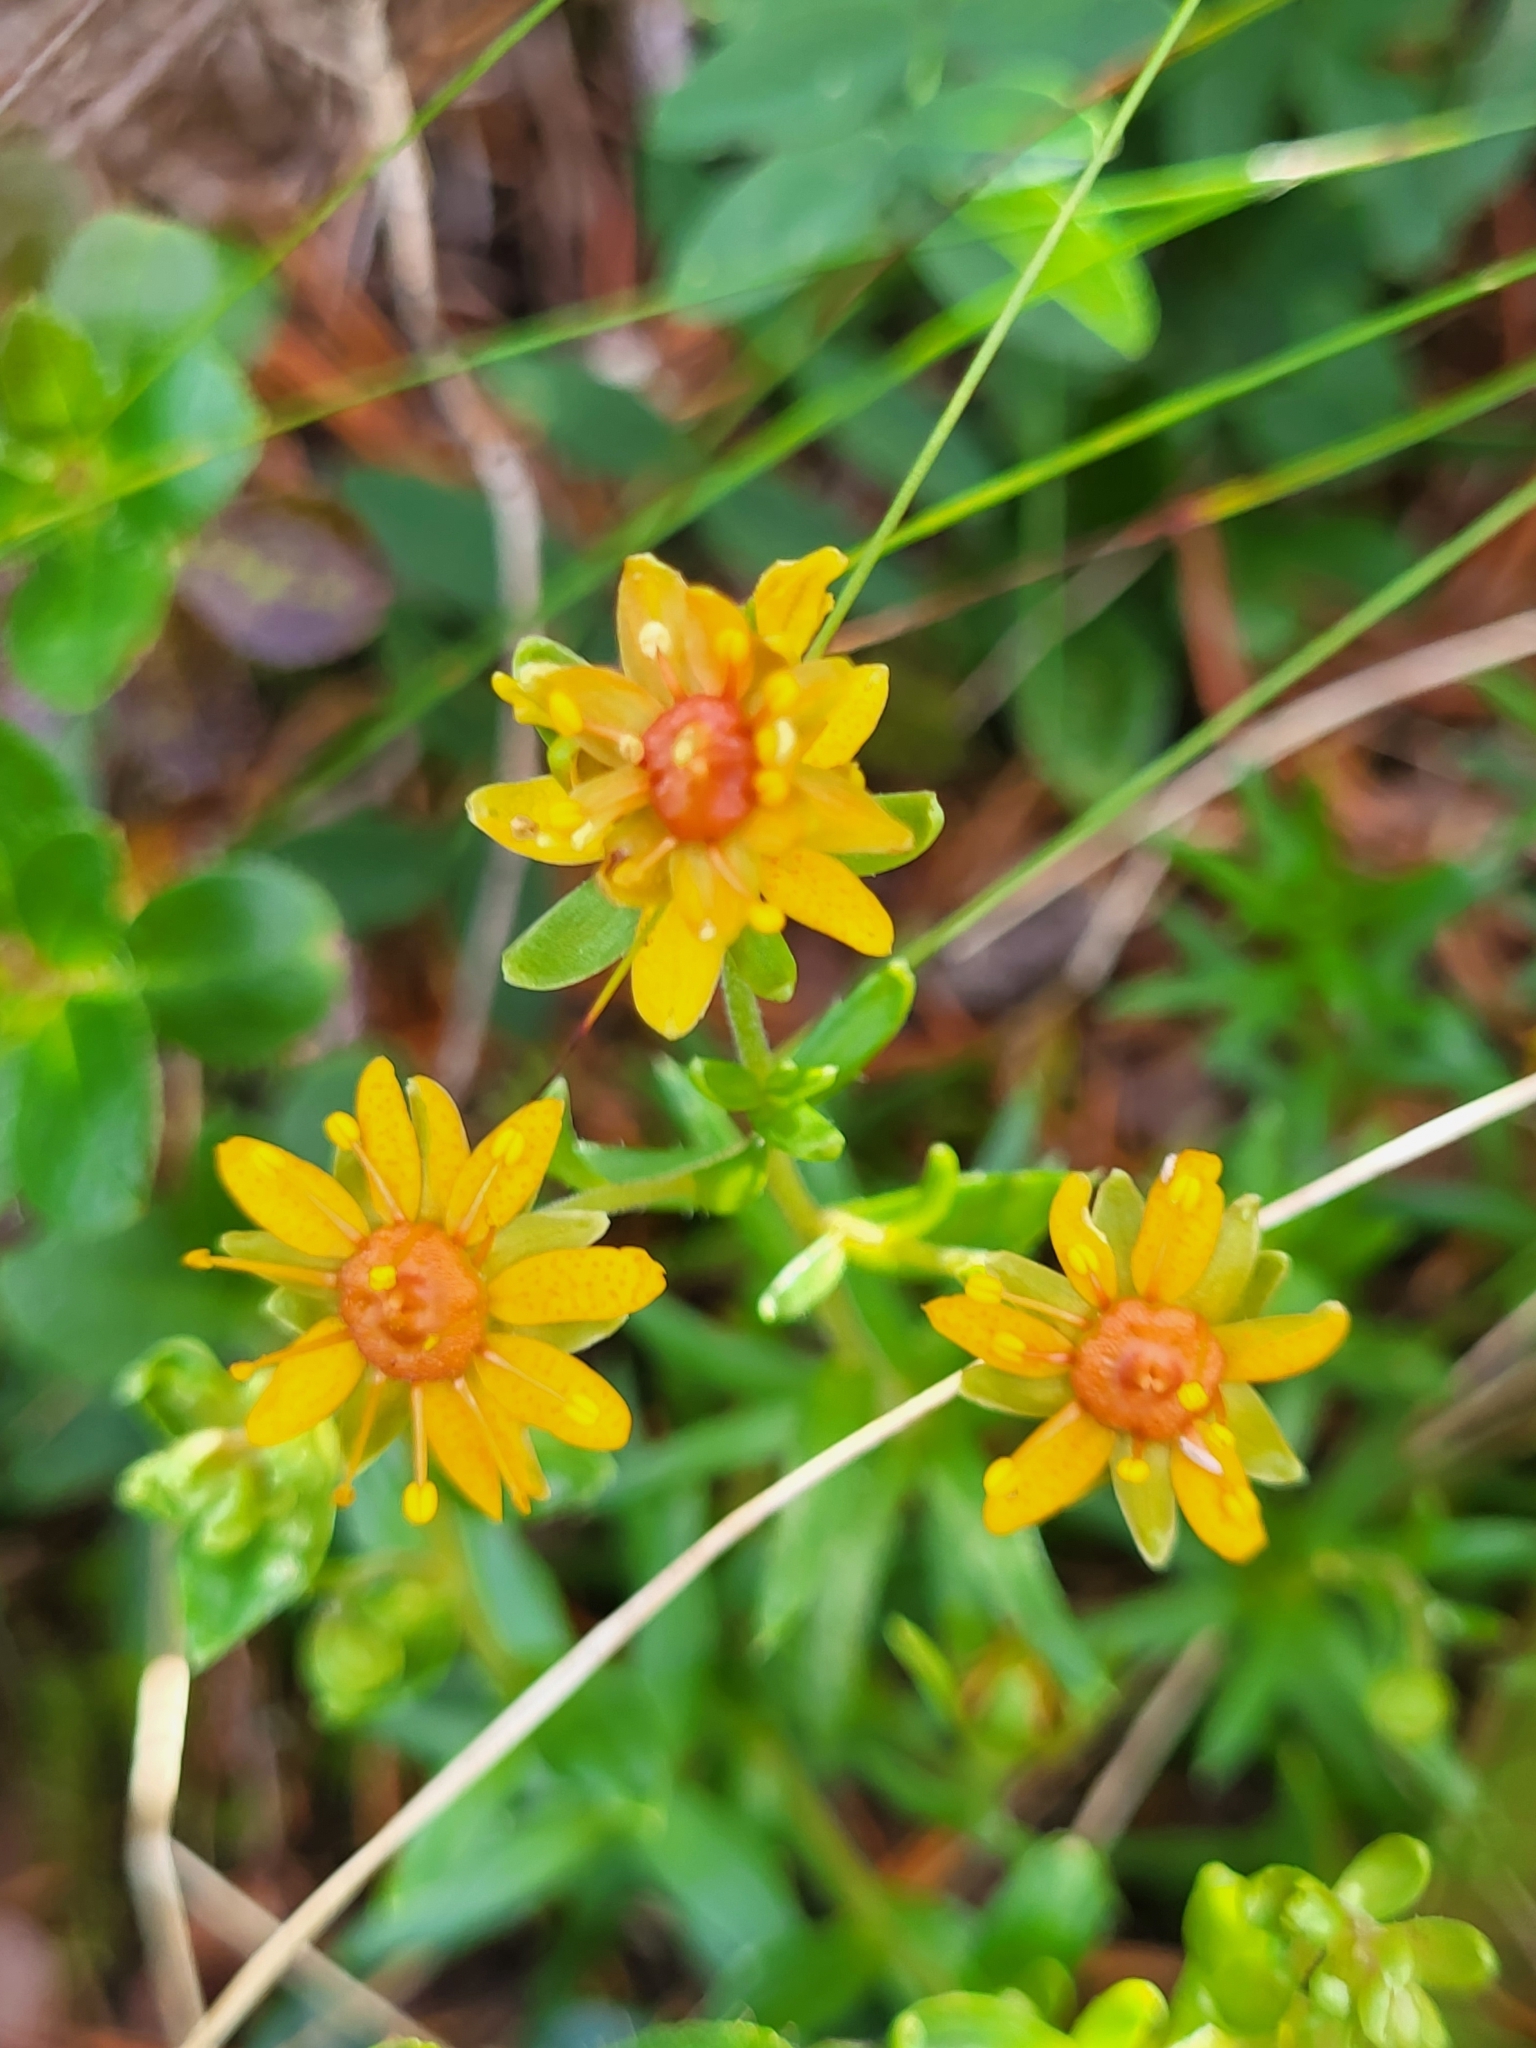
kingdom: Plantae
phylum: Tracheophyta
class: Magnoliopsida
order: Saxifragales
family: Saxifragaceae
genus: Saxifraga
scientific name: Saxifraga aizoides
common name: Yellow mountain saxifrage
